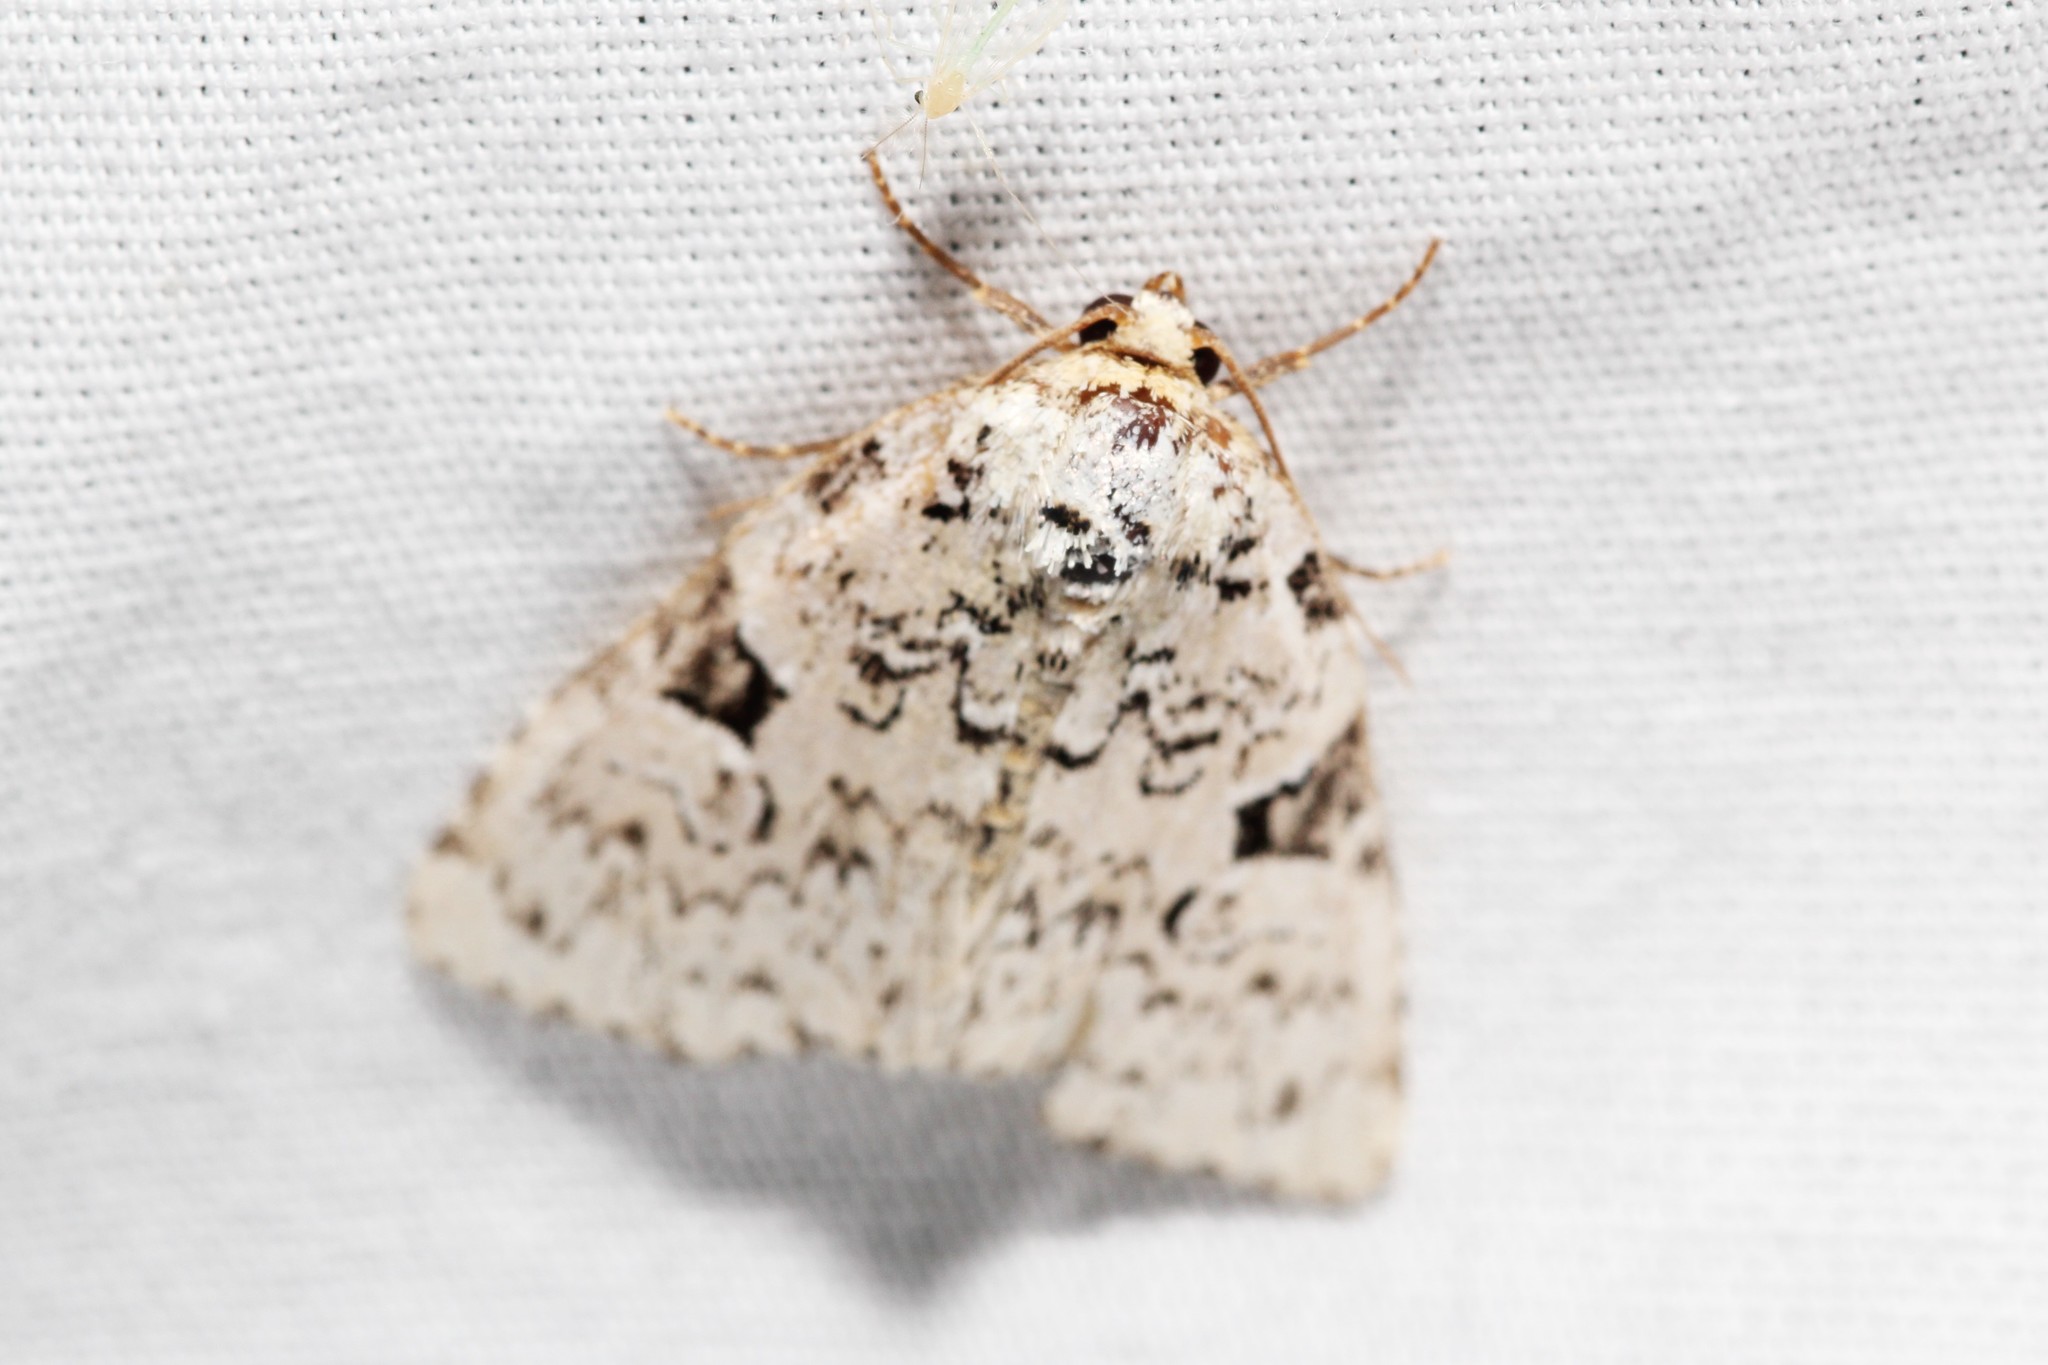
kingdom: Animalia
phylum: Arthropoda
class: Insecta
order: Lepidoptera
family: Noctuidae
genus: Leuconycta
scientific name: Leuconycta diphteroides
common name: Green leuconycta moth
